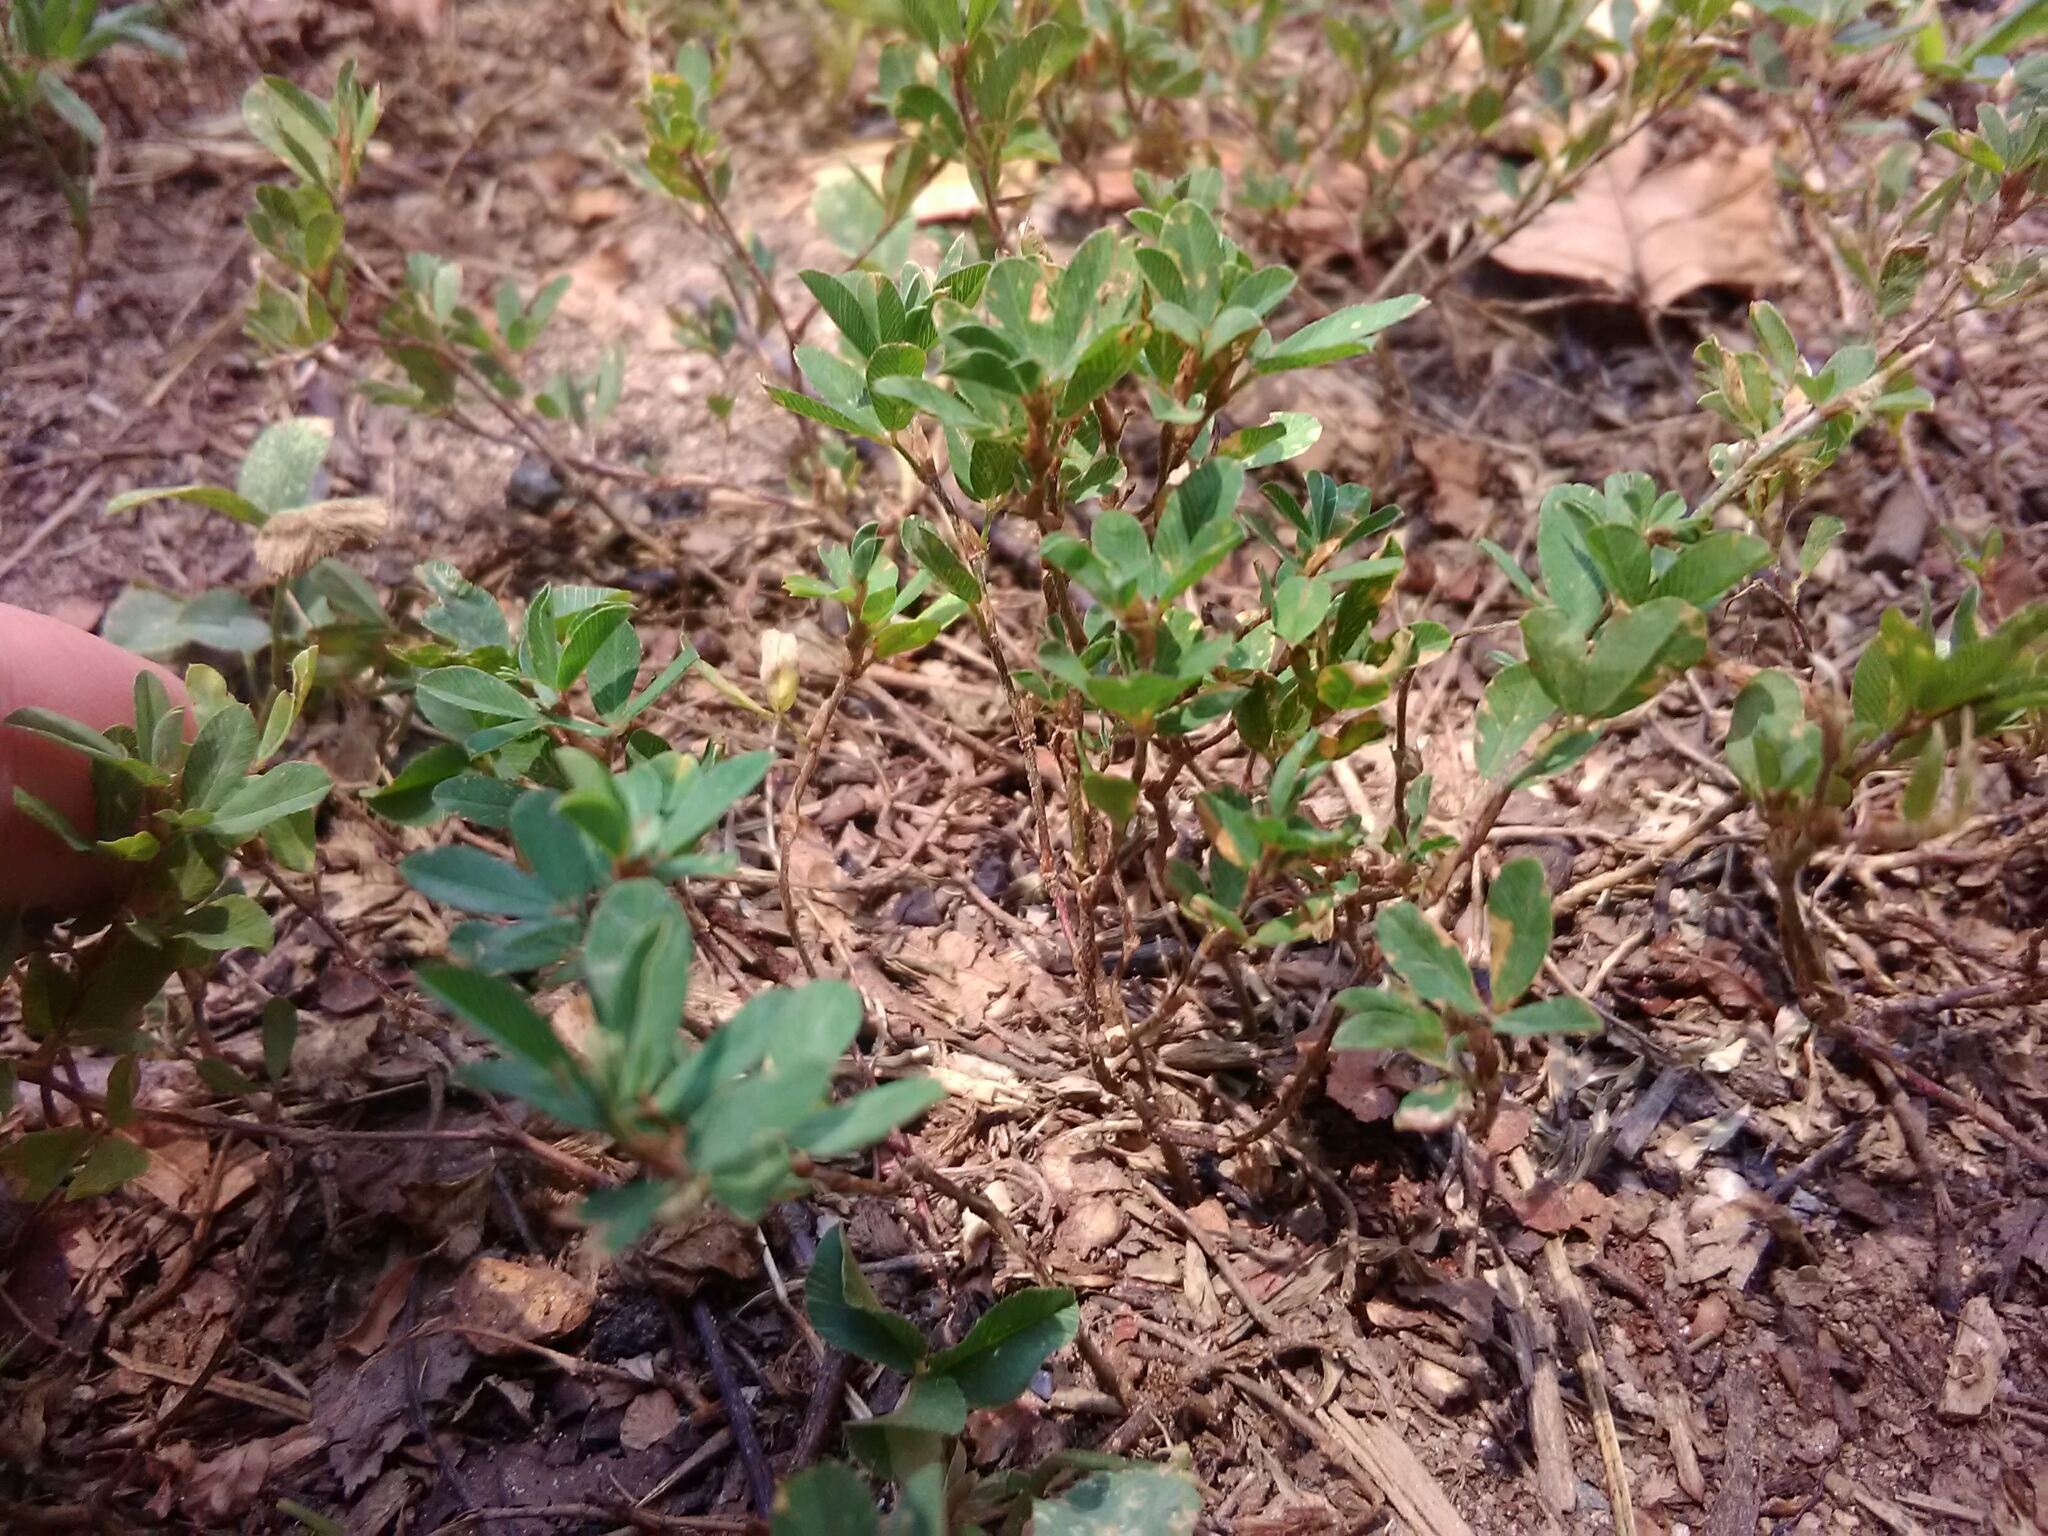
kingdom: Plantae
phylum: Tracheophyta
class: Magnoliopsida
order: Fabales
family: Fabaceae
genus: Kummerowia
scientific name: Kummerowia striata
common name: Japanese clover
